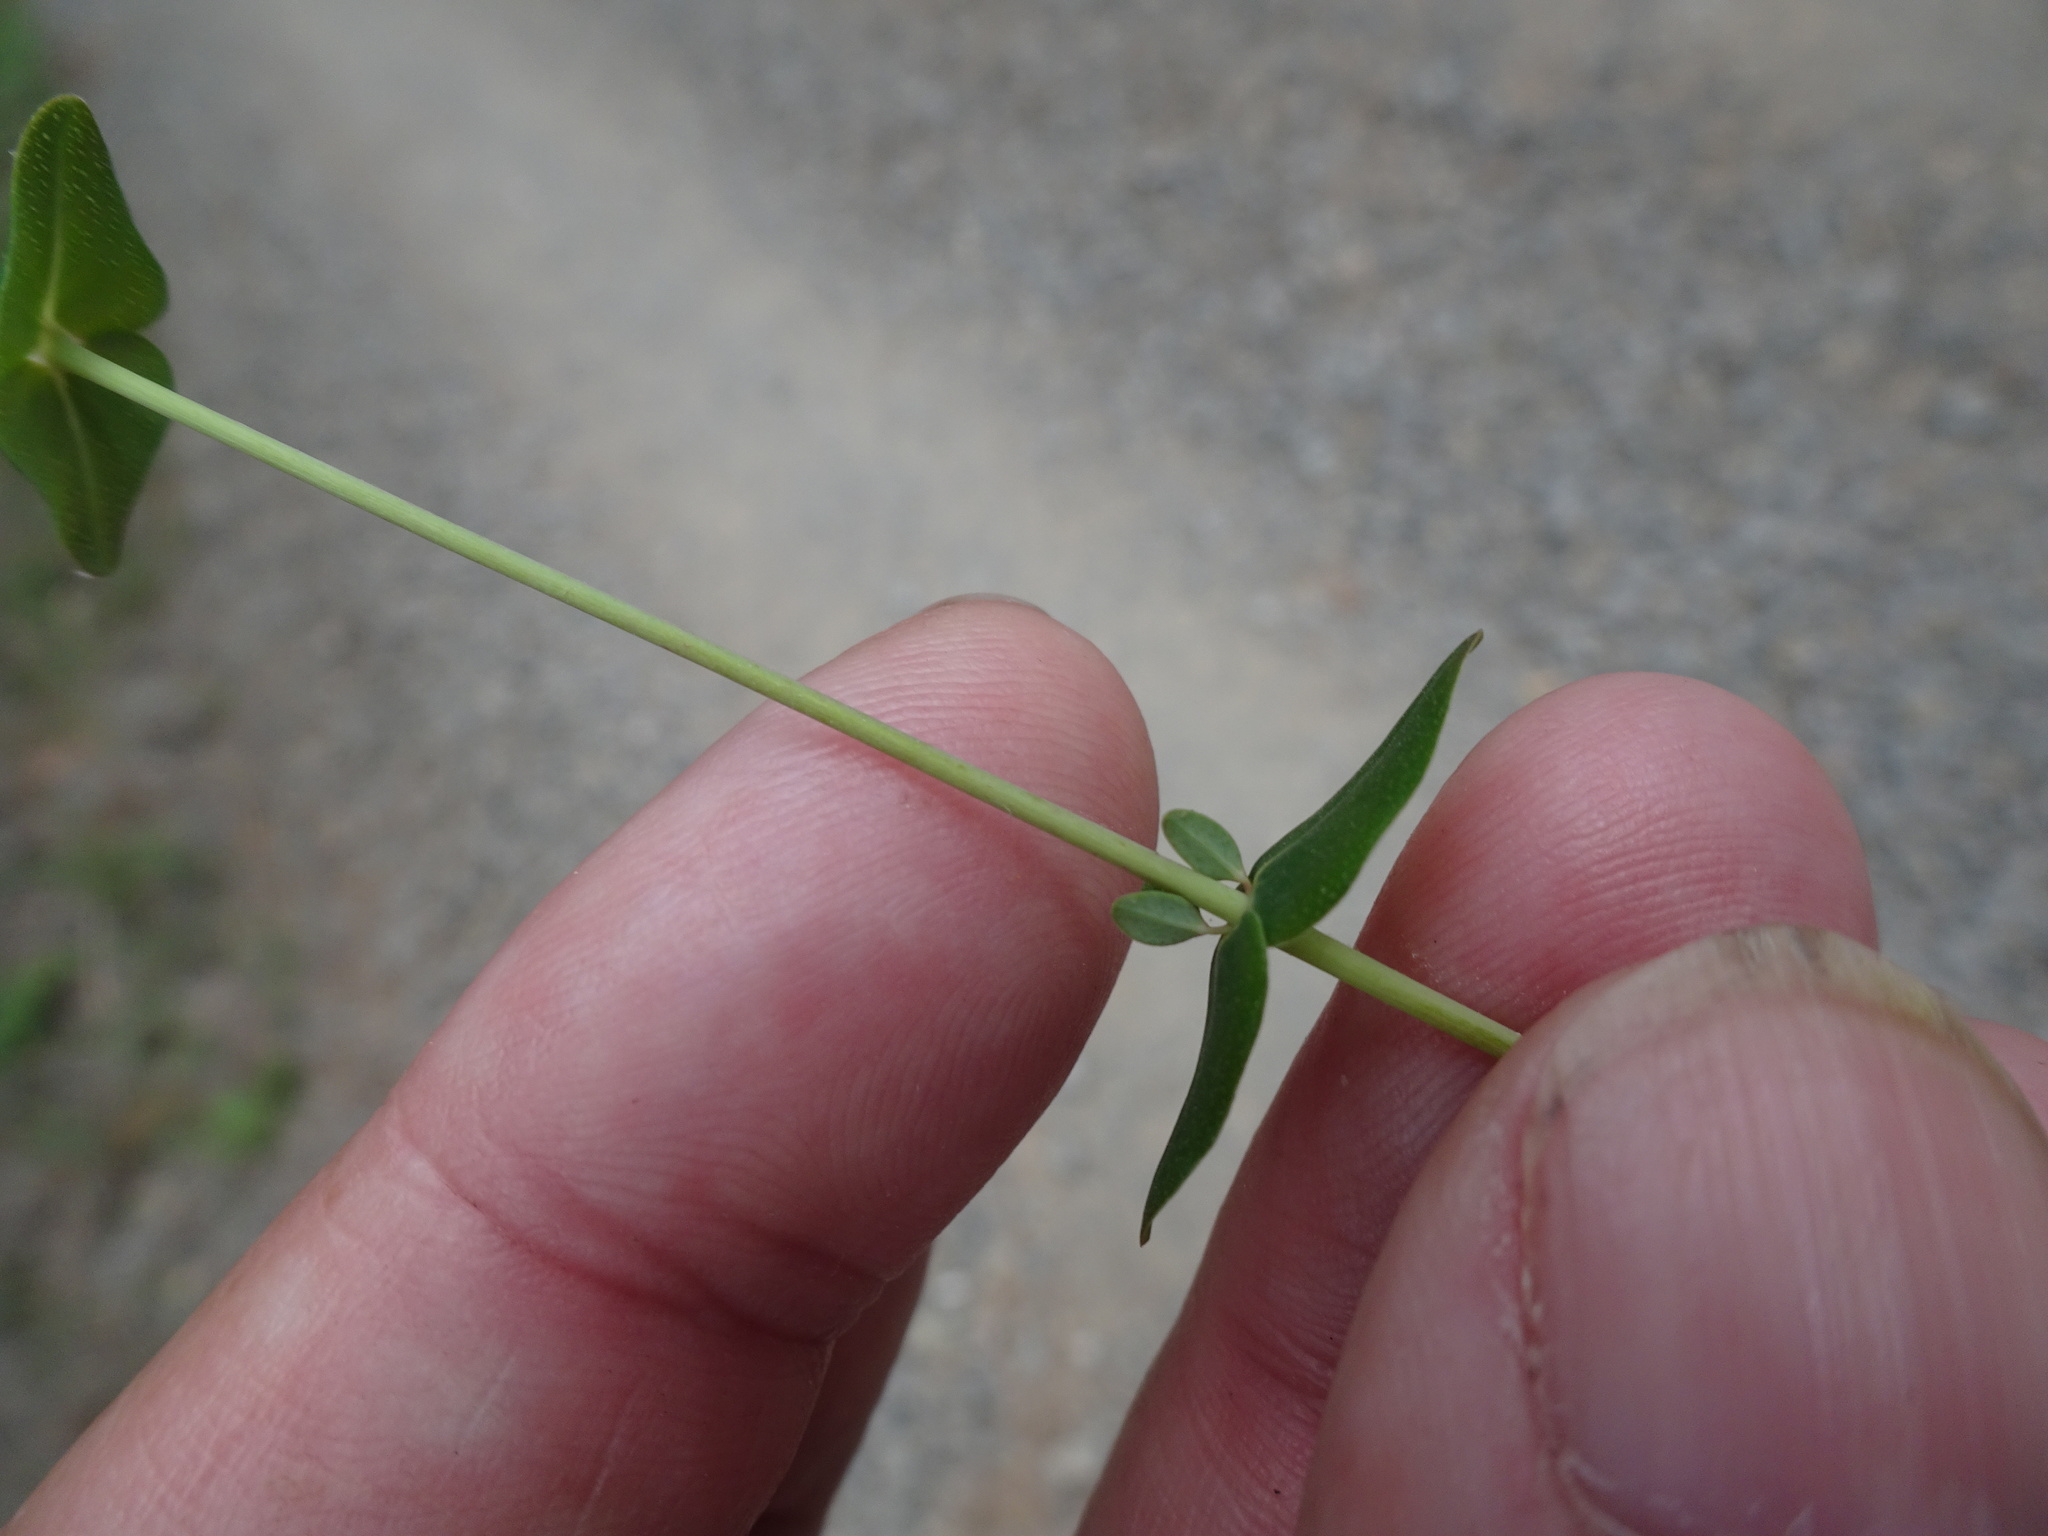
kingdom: Plantae
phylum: Tracheophyta
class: Magnoliopsida
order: Malpighiales
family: Hypericaceae
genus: Hypericum
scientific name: Hypericum pulchrum
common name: Slender st. john's-wort
